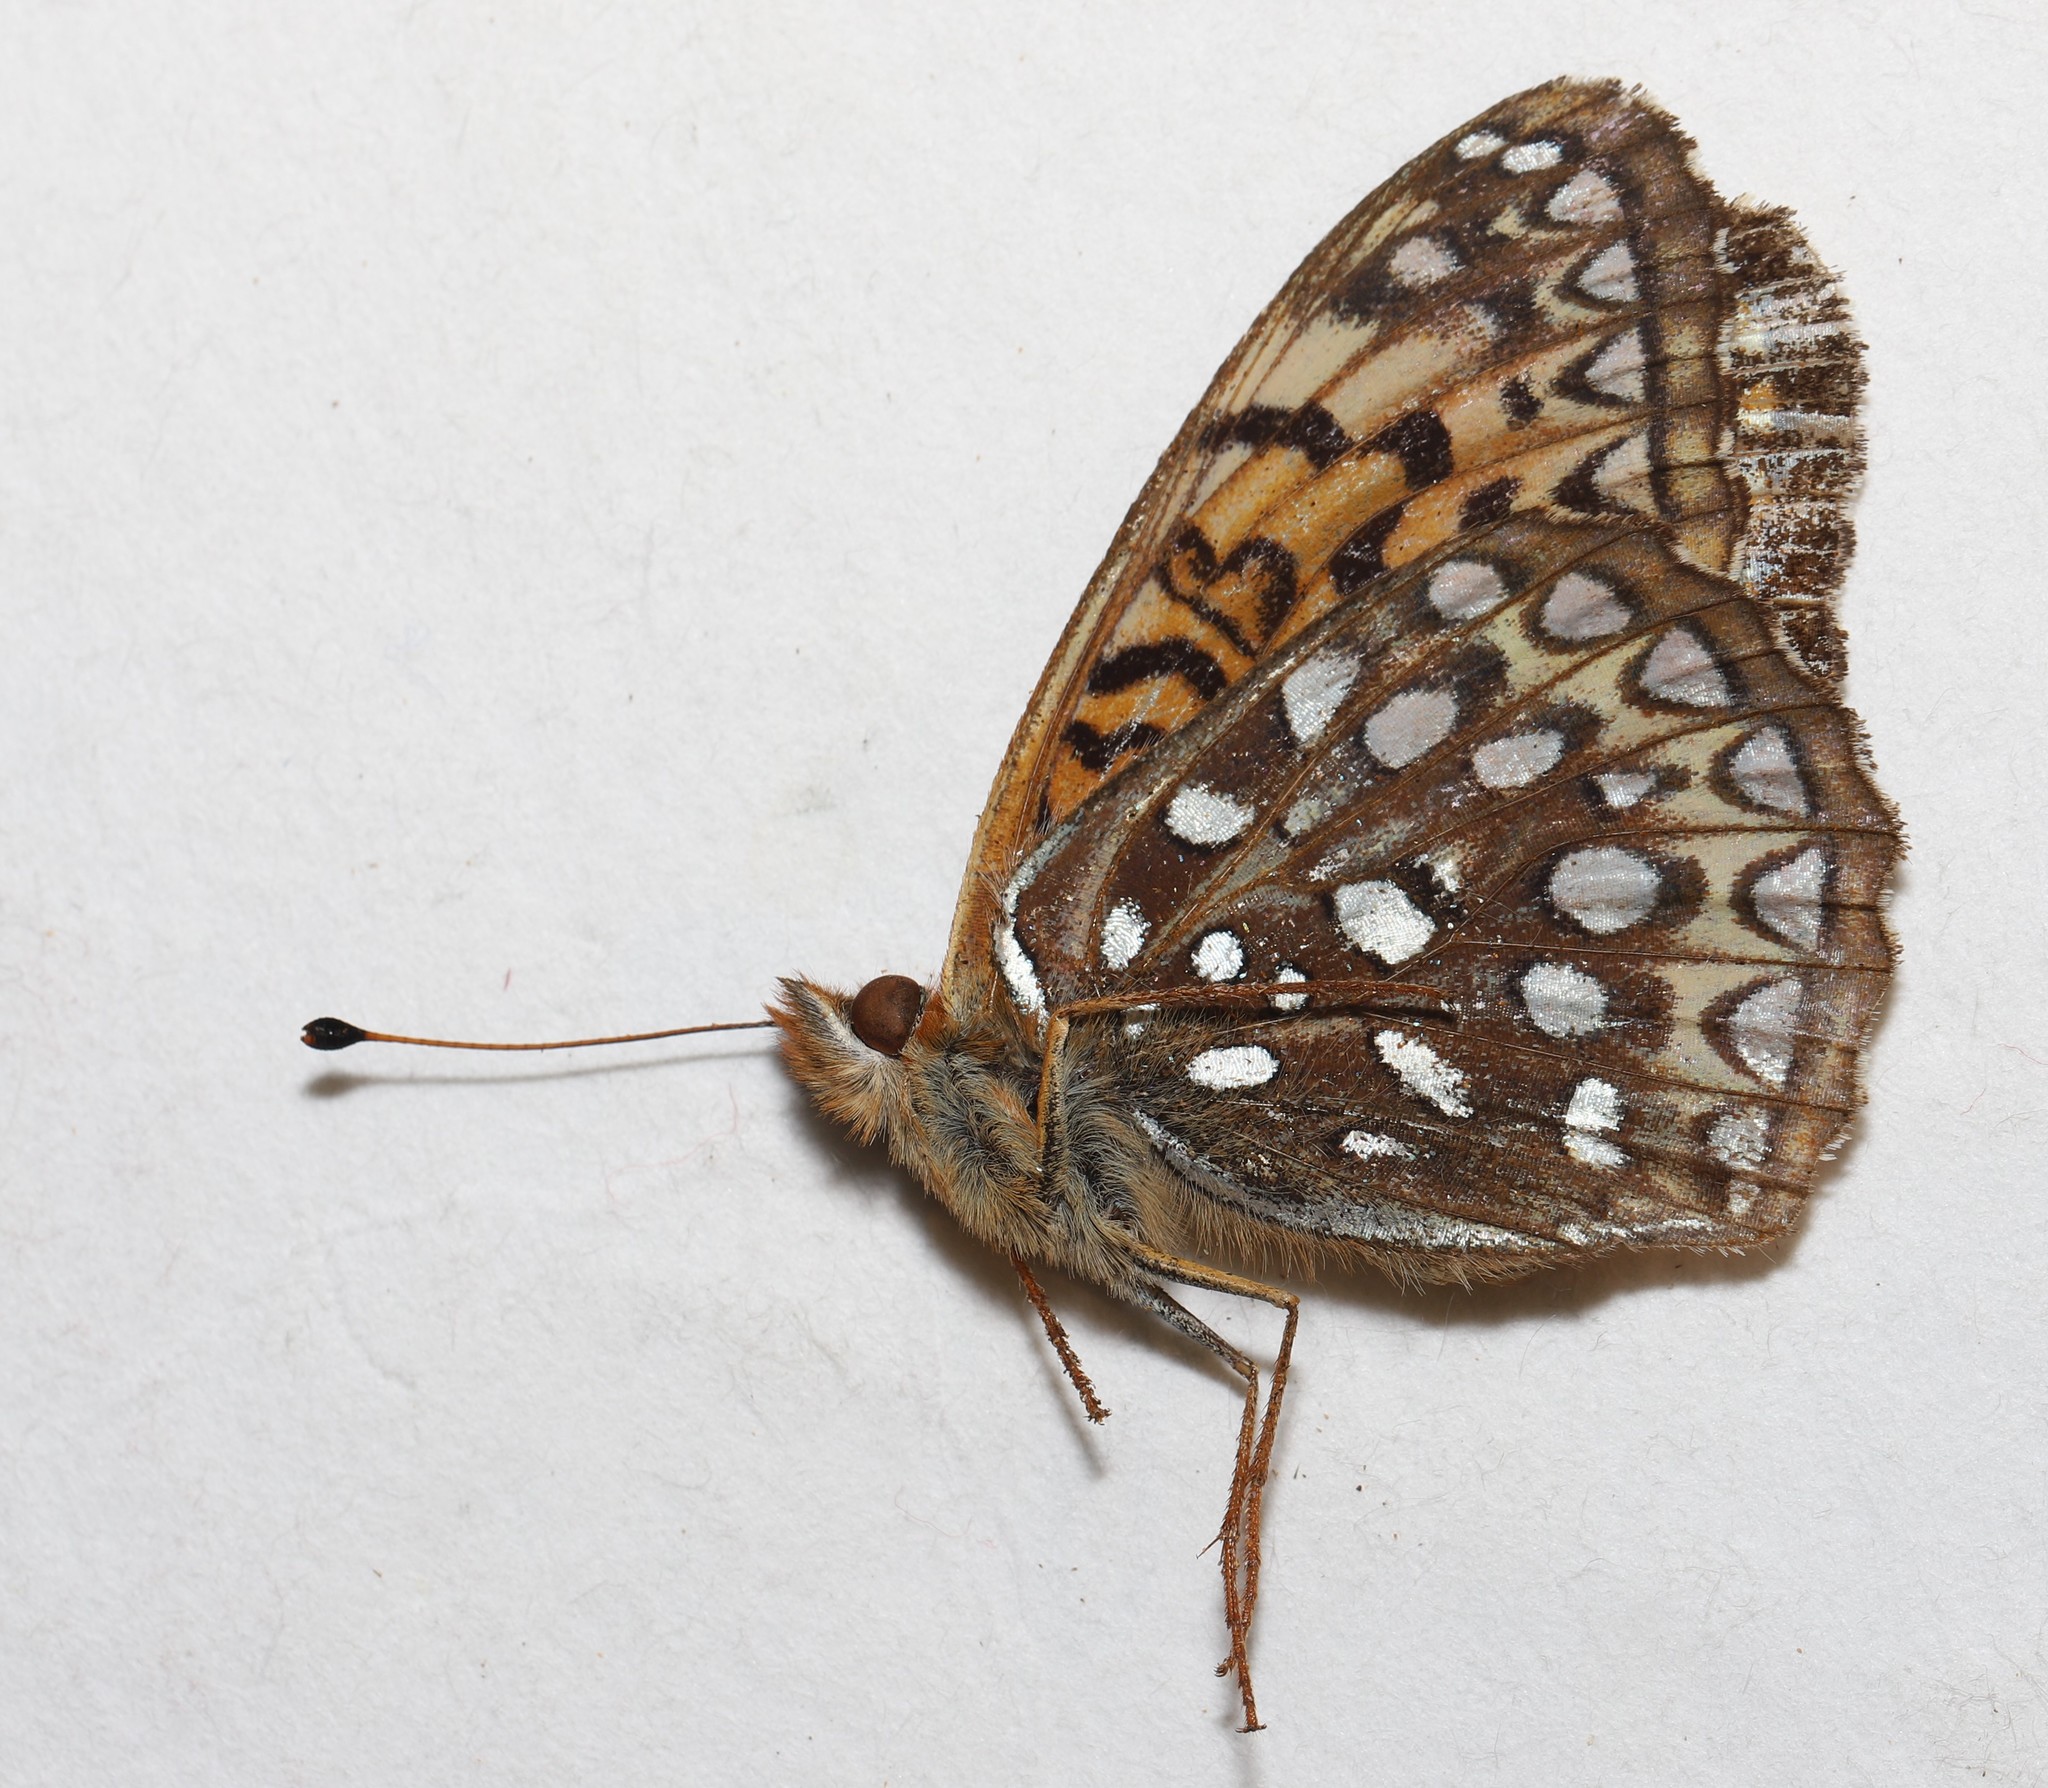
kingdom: Animalia
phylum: Arthropoda
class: Insecta
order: Lepidoptera
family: Nymphalidae
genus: Speyeria
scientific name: Speyeria atlantis
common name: Atlantis fritillary
